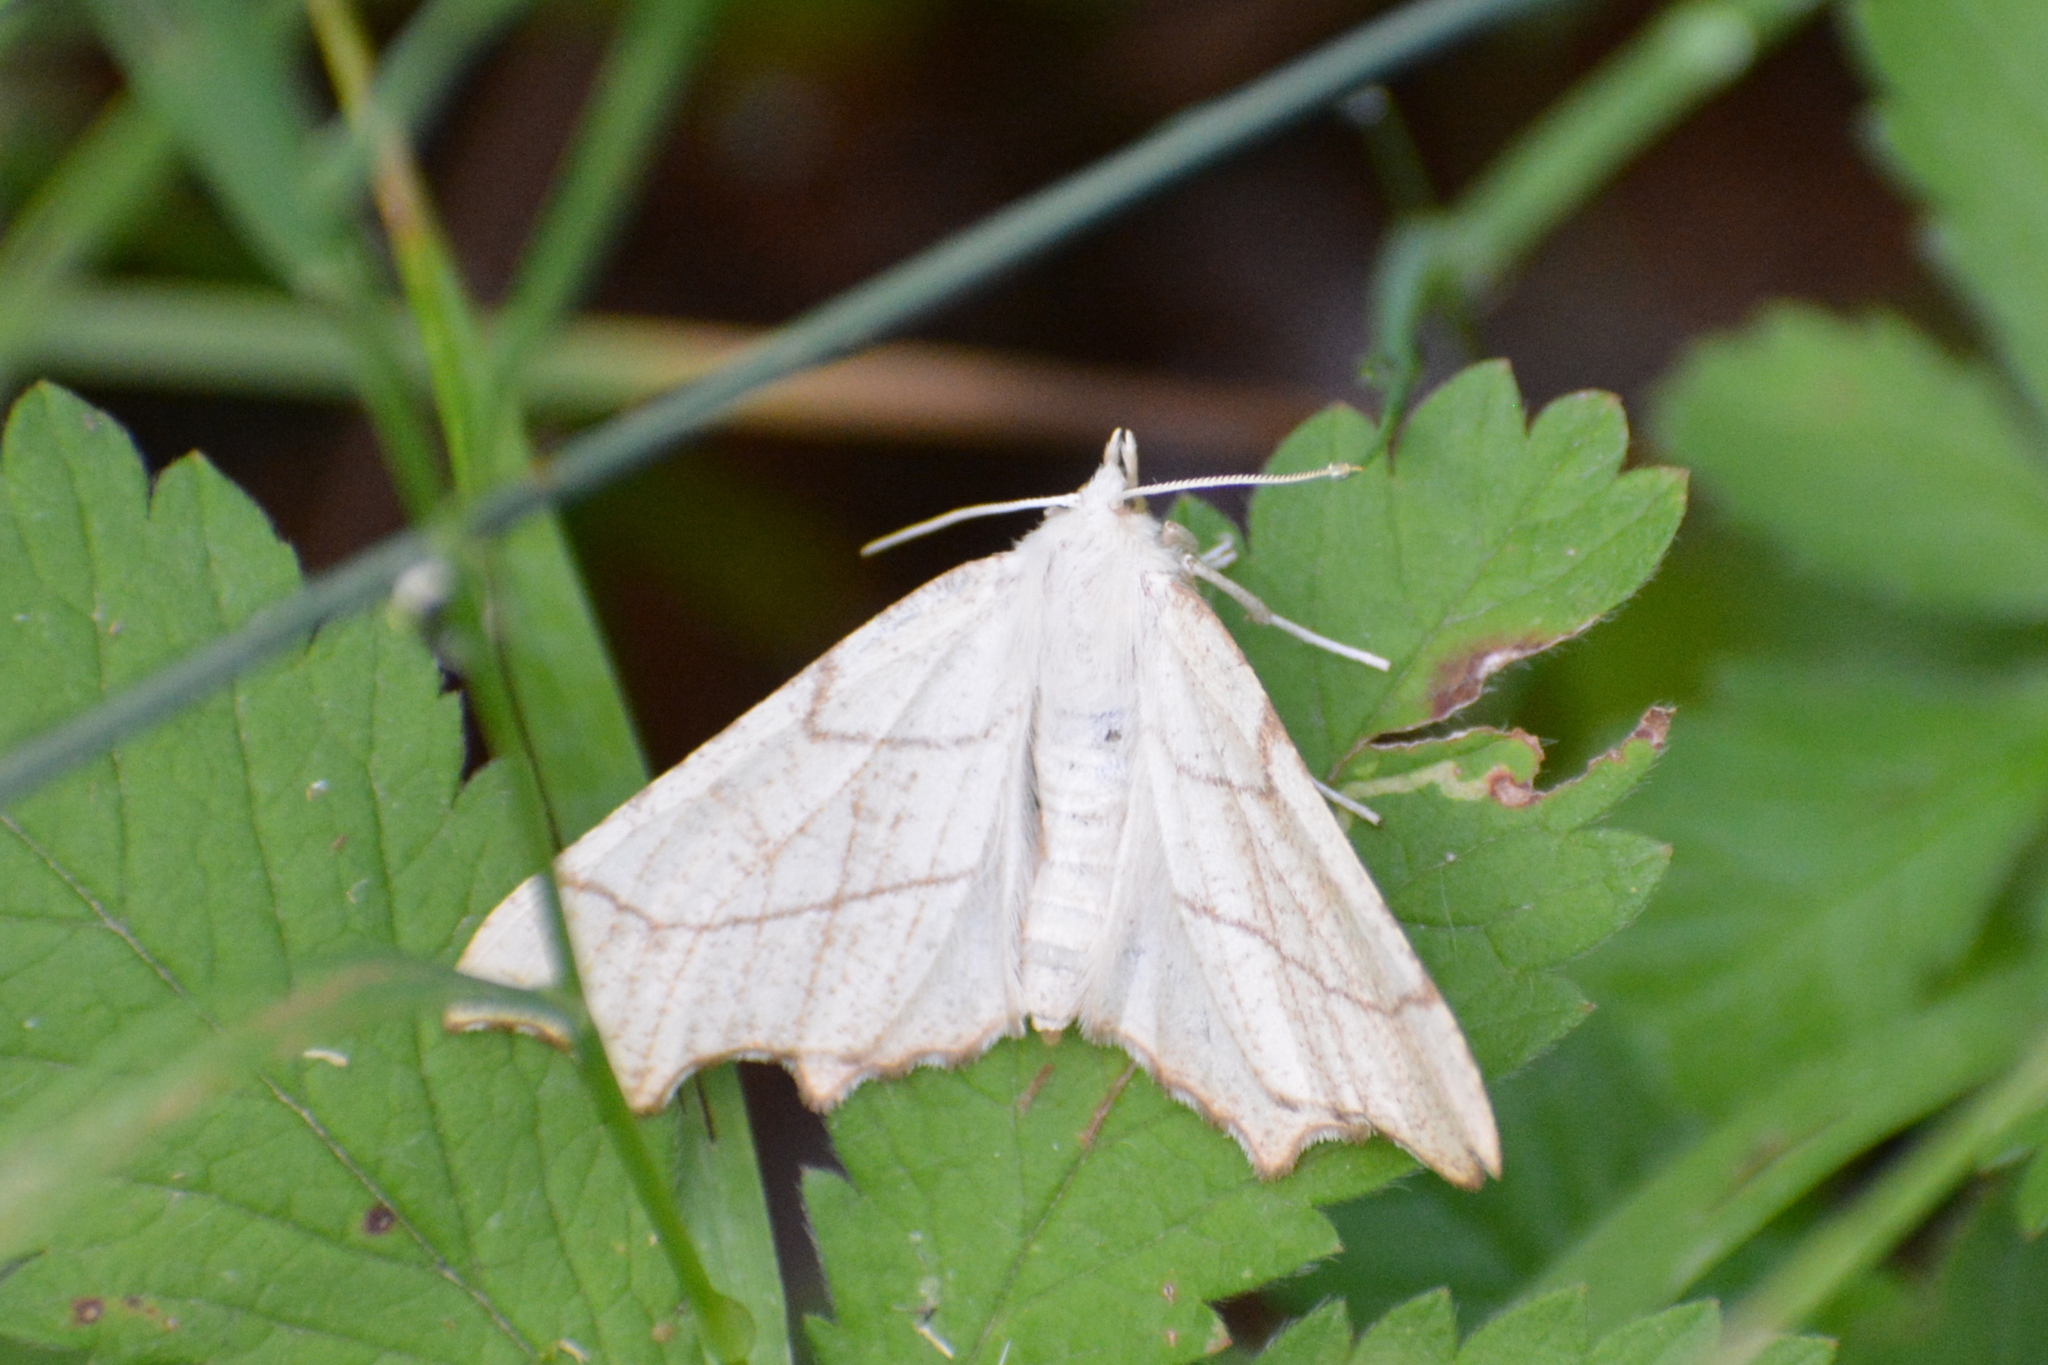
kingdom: Animalia
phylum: Arthropoda
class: Insecta
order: Lepidoptera
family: Geometridae
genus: Ennomos
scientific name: Ennomos quercinaria
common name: August thorn
